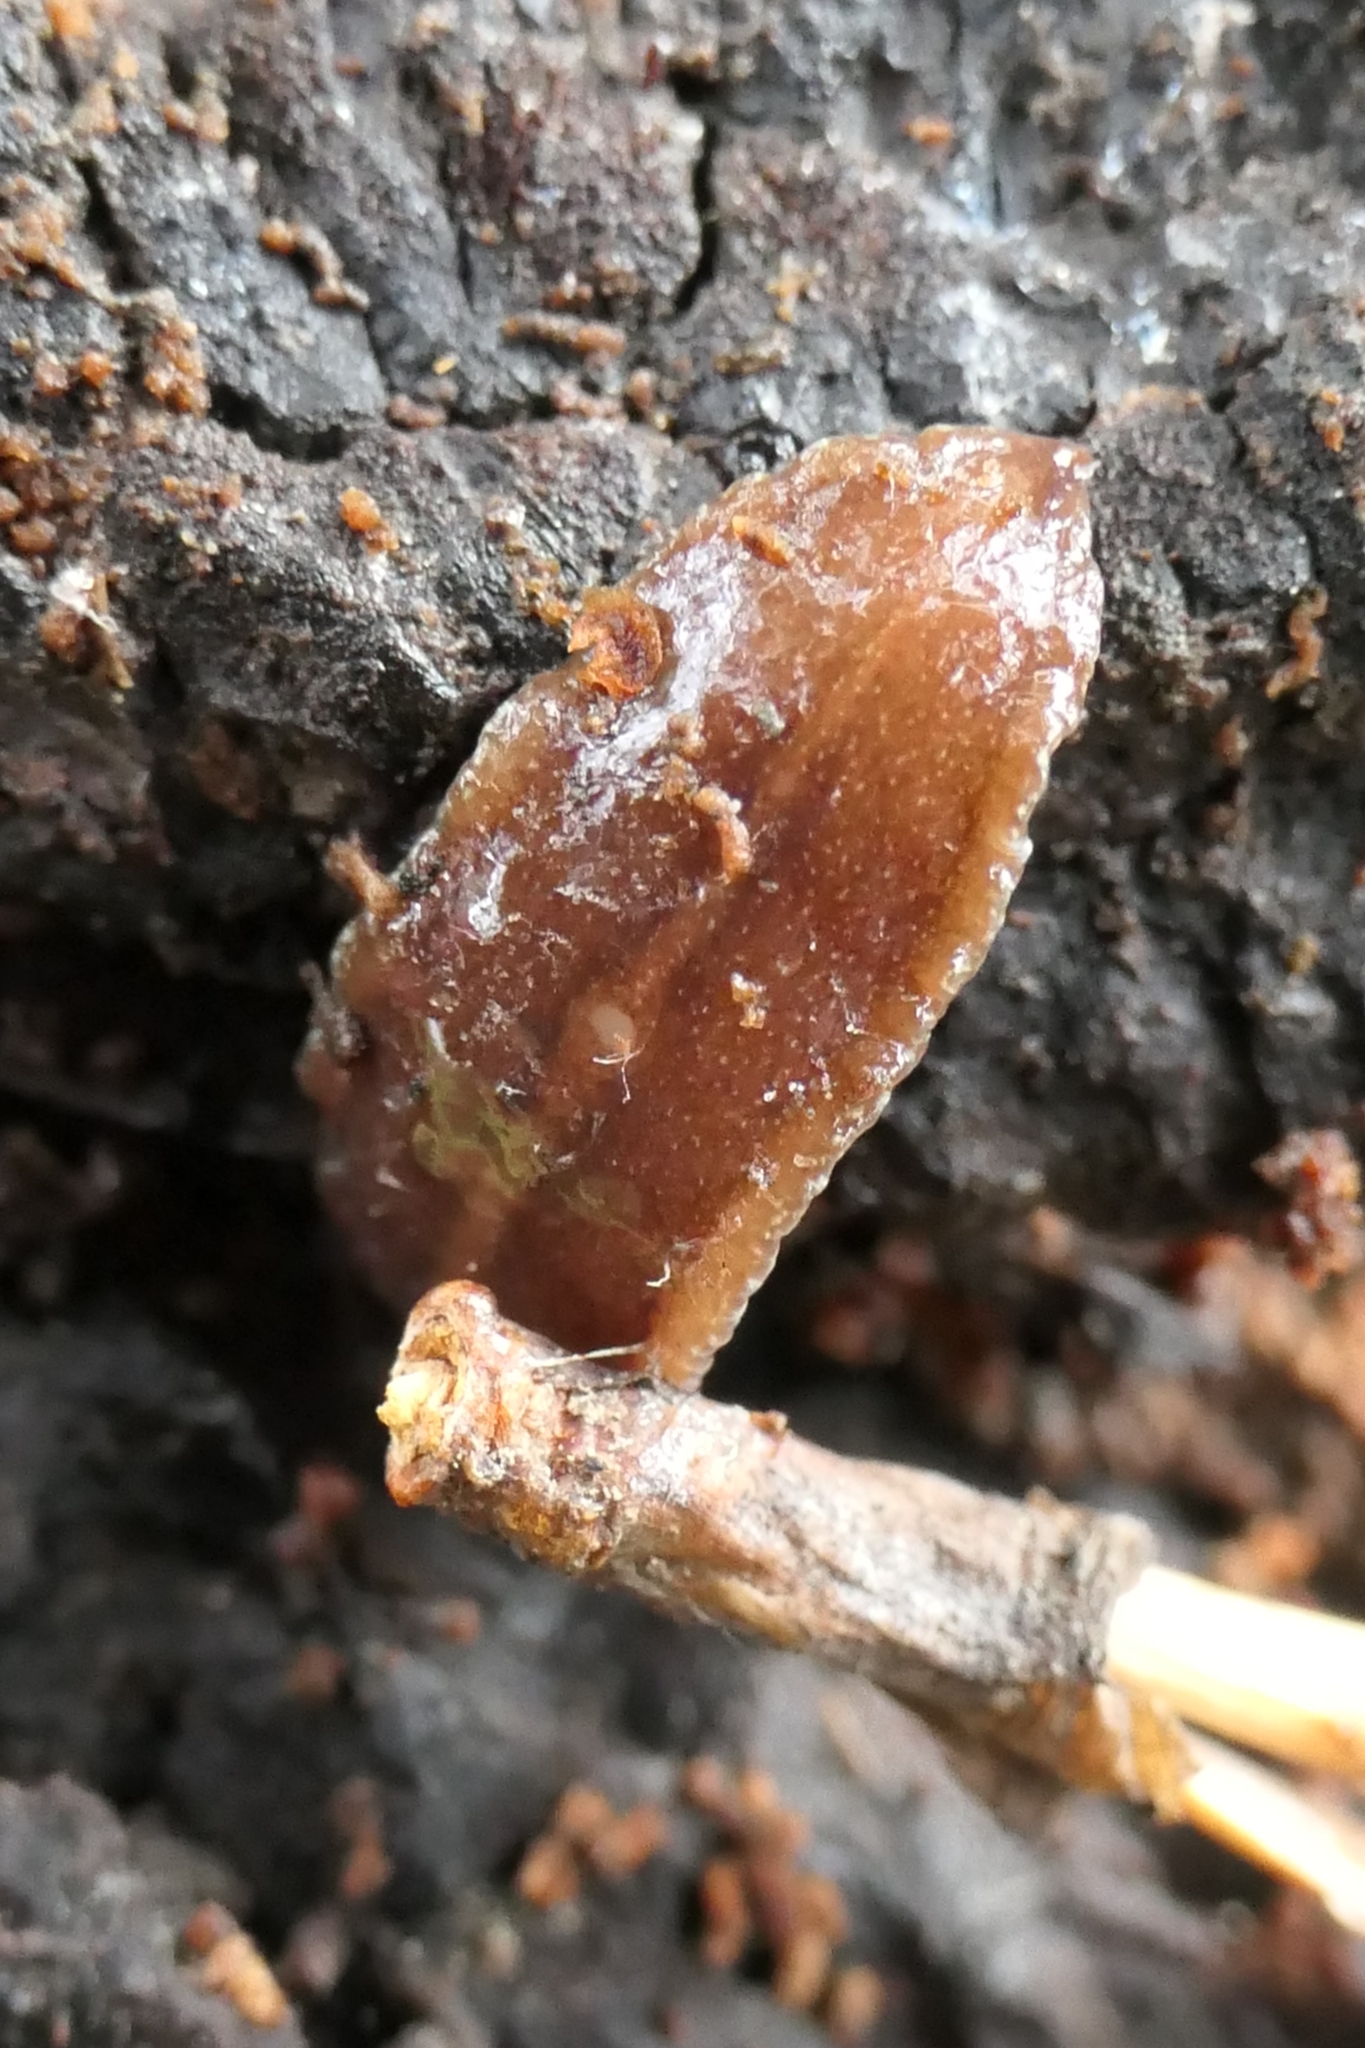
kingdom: Animalia
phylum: Platyhelminthes
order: Tricladida
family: Geoplanidae
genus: Newzealandia
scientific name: Newzealandia graffii
